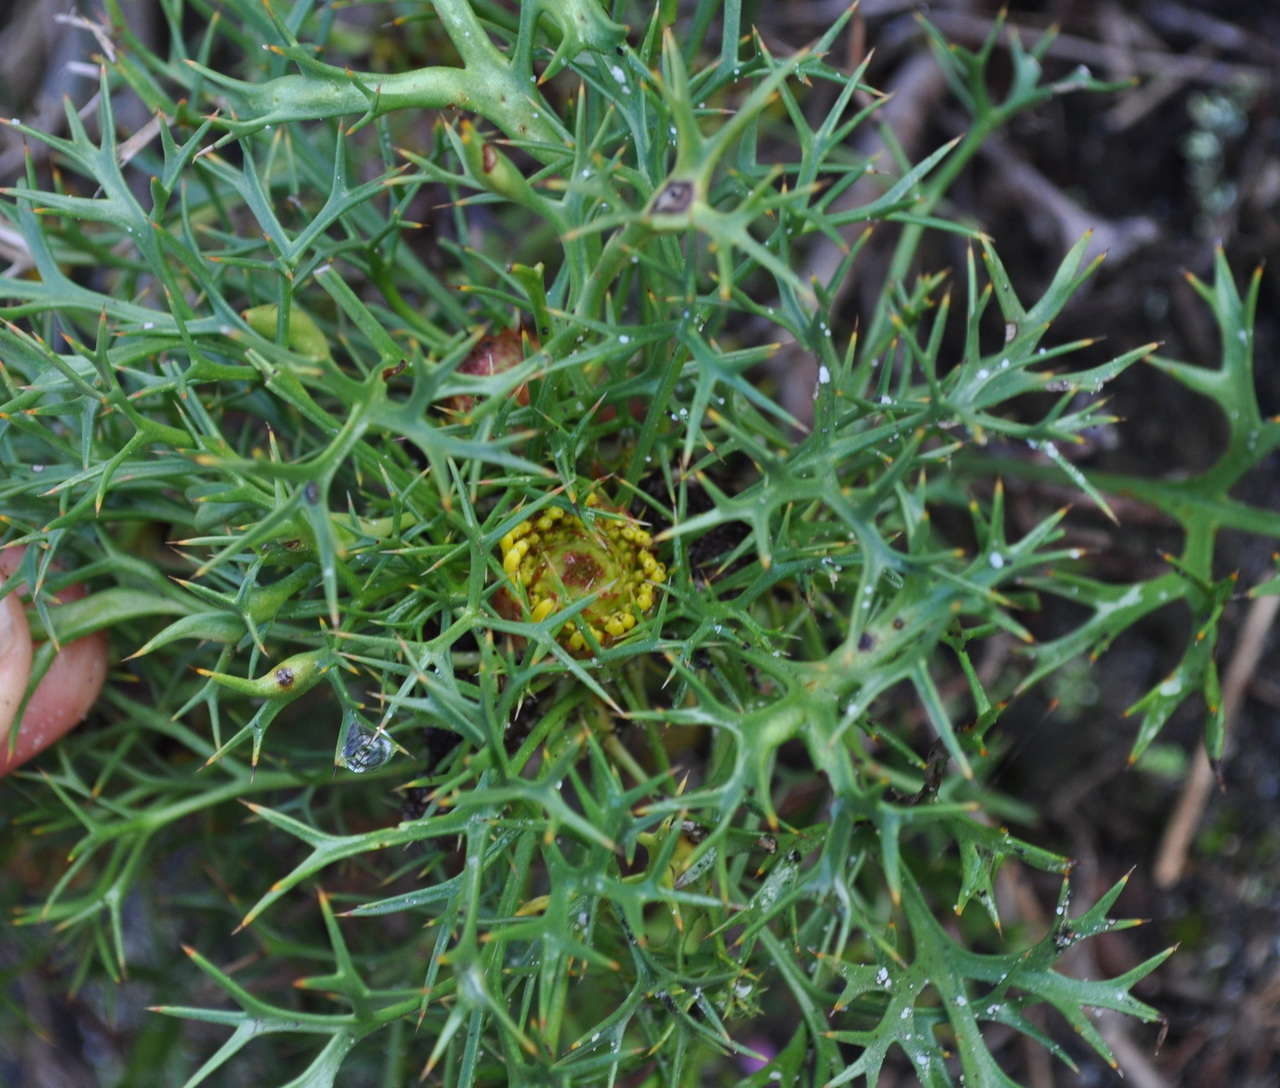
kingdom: Plantae
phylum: Tracheophyta
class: Magnoliopsida
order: Proteales
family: Proteaceae
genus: Isopogon
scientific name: Isopogon ceratophyllus
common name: Horny cone-bush
